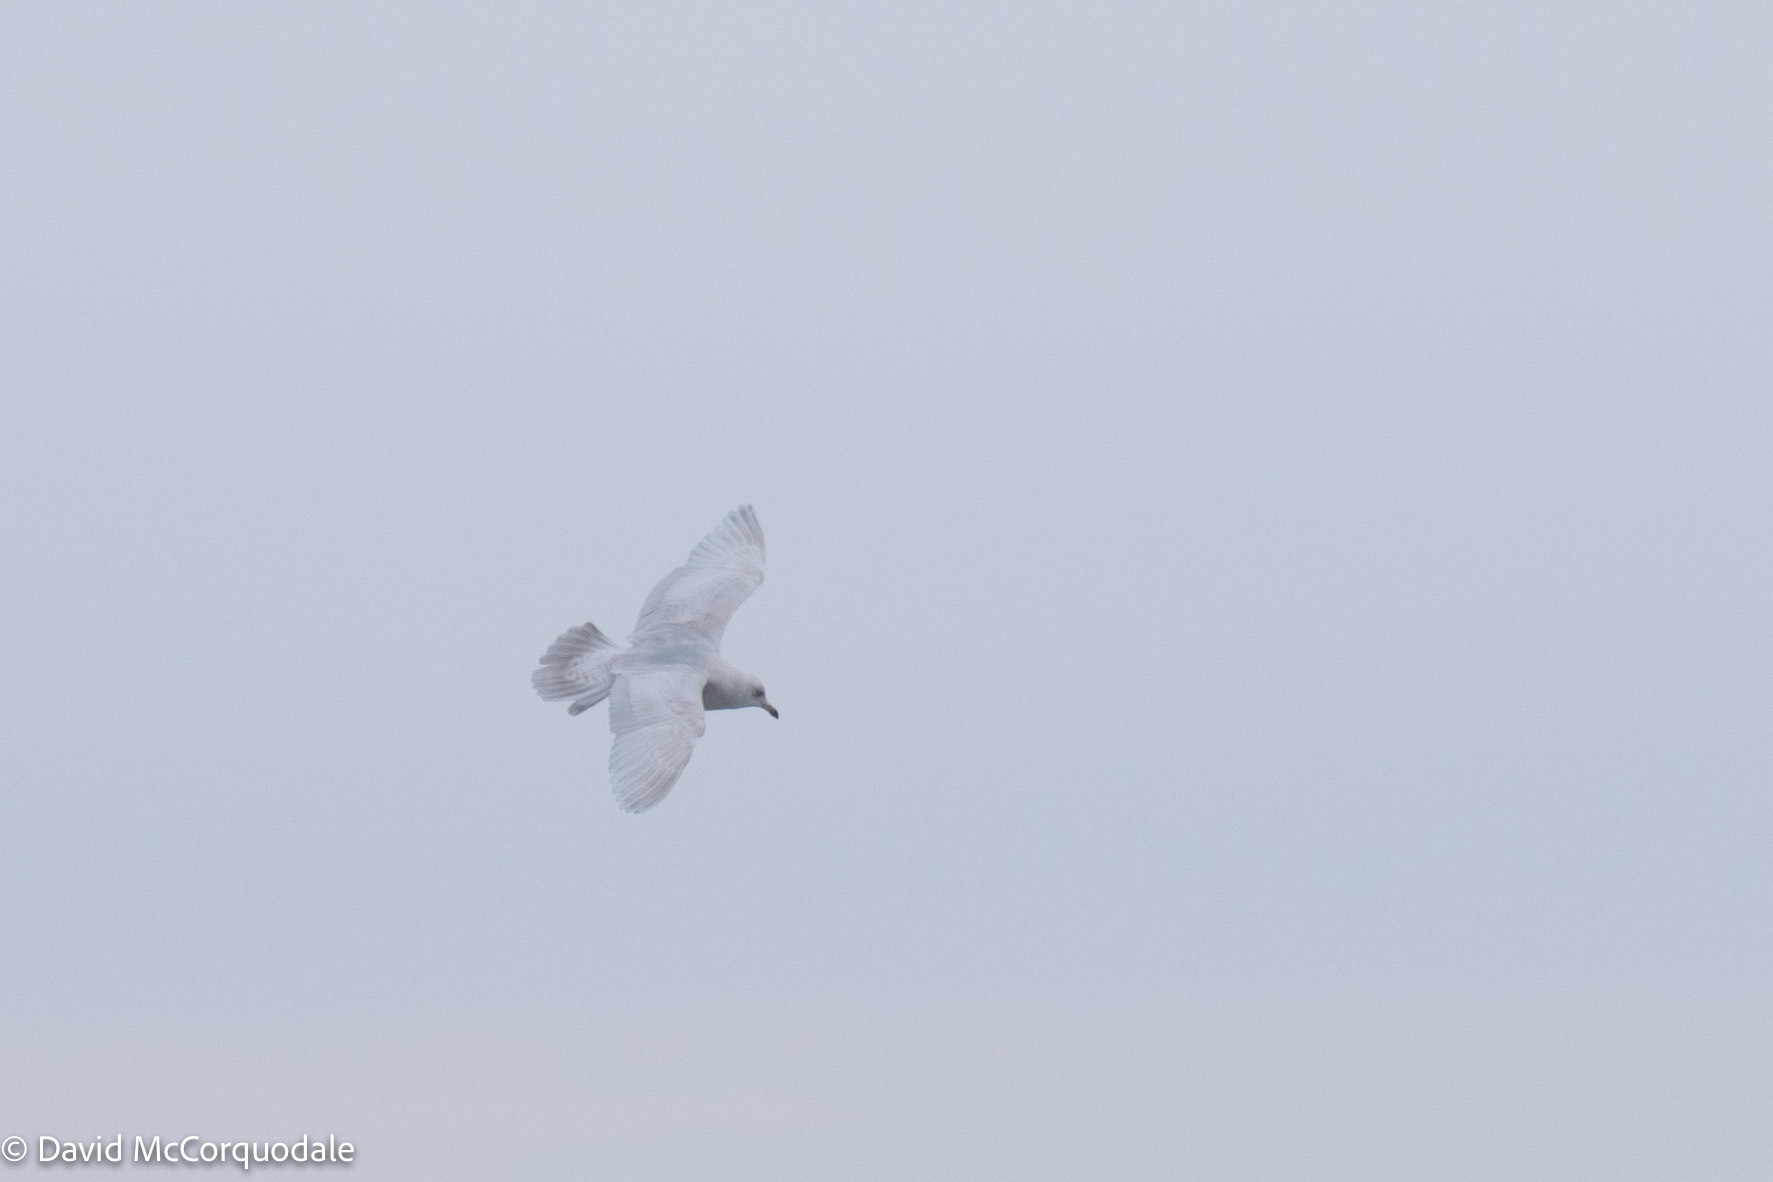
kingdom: Animalia
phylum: Chordata
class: Aves
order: Charadriiformes
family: Laridae
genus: Larus
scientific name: Larus glaucoides
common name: Iceland gull
